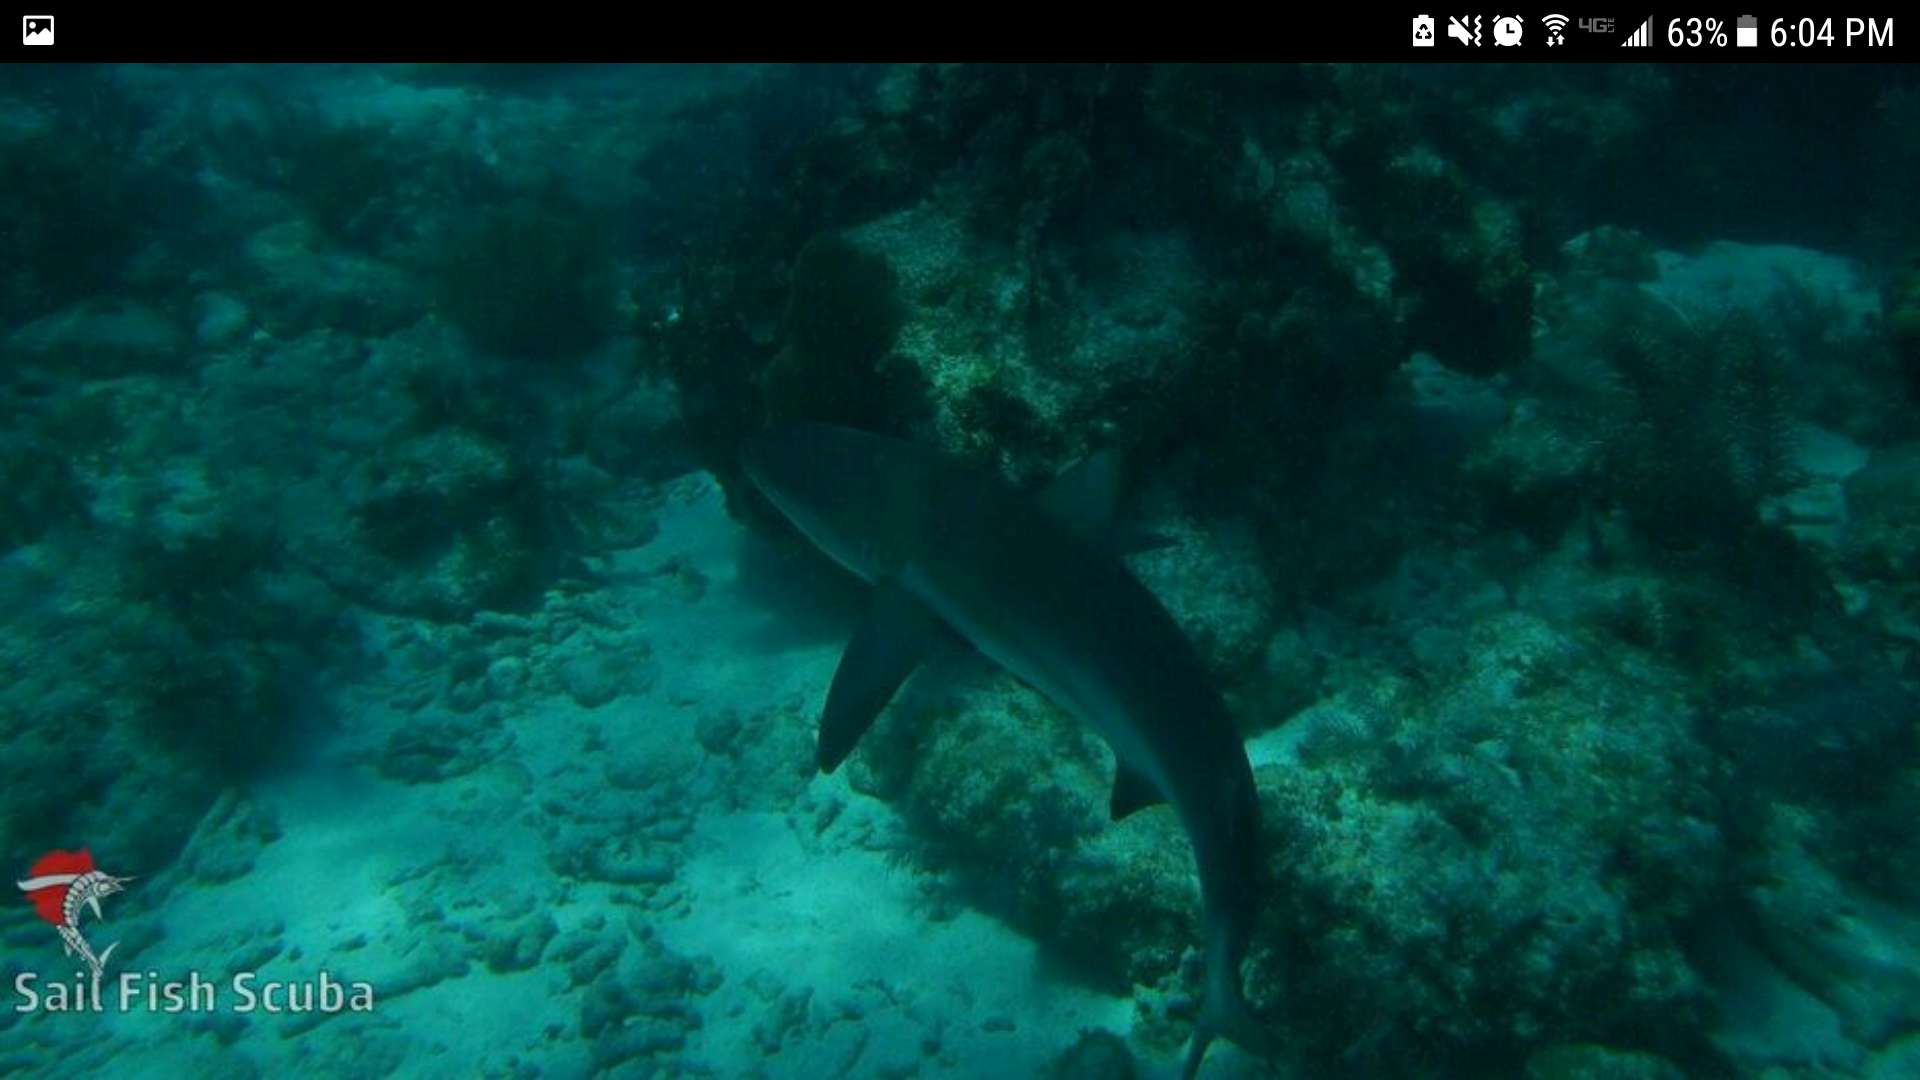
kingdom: Animalia
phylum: Chordata
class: Elasmobranchii
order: Carcharhiniformes
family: Carcharhinidae
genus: Carcharhinus
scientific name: Carcharhinus perezii
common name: Reef shark
